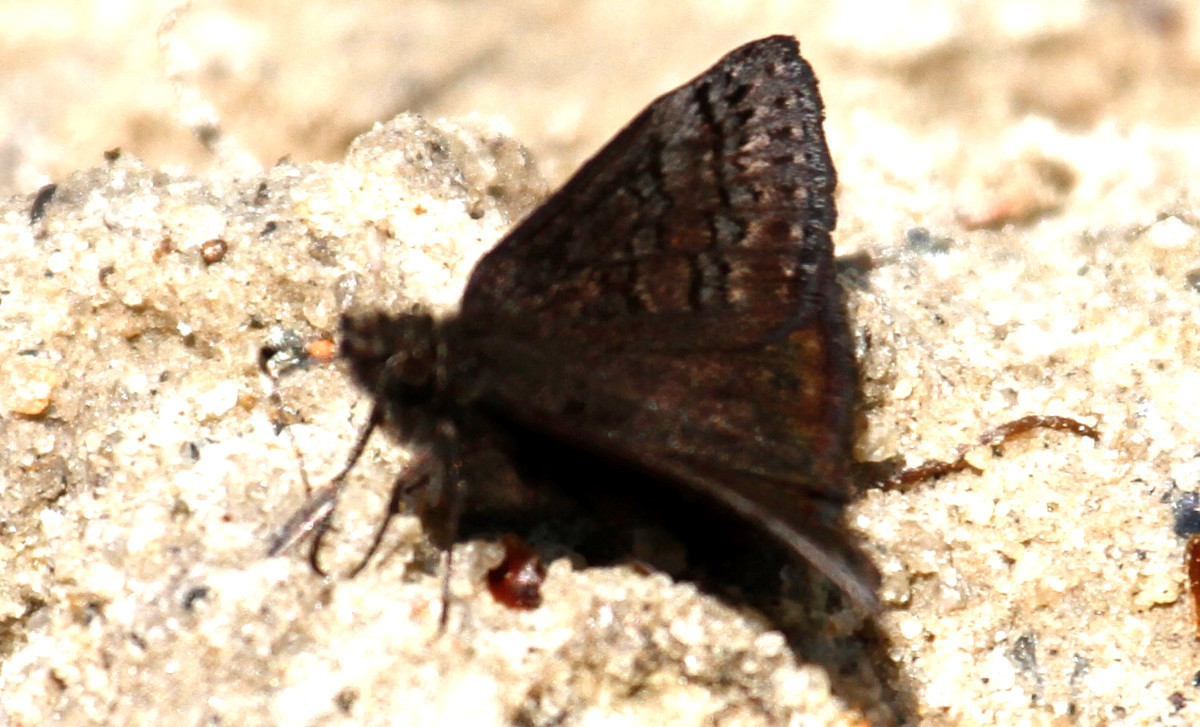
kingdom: Animalia
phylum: Arthropoda
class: Insecta
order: Lepidoptera
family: Hesperiidae
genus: Erynnis
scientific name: Erynnis brizo
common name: Sleepy duskywing
